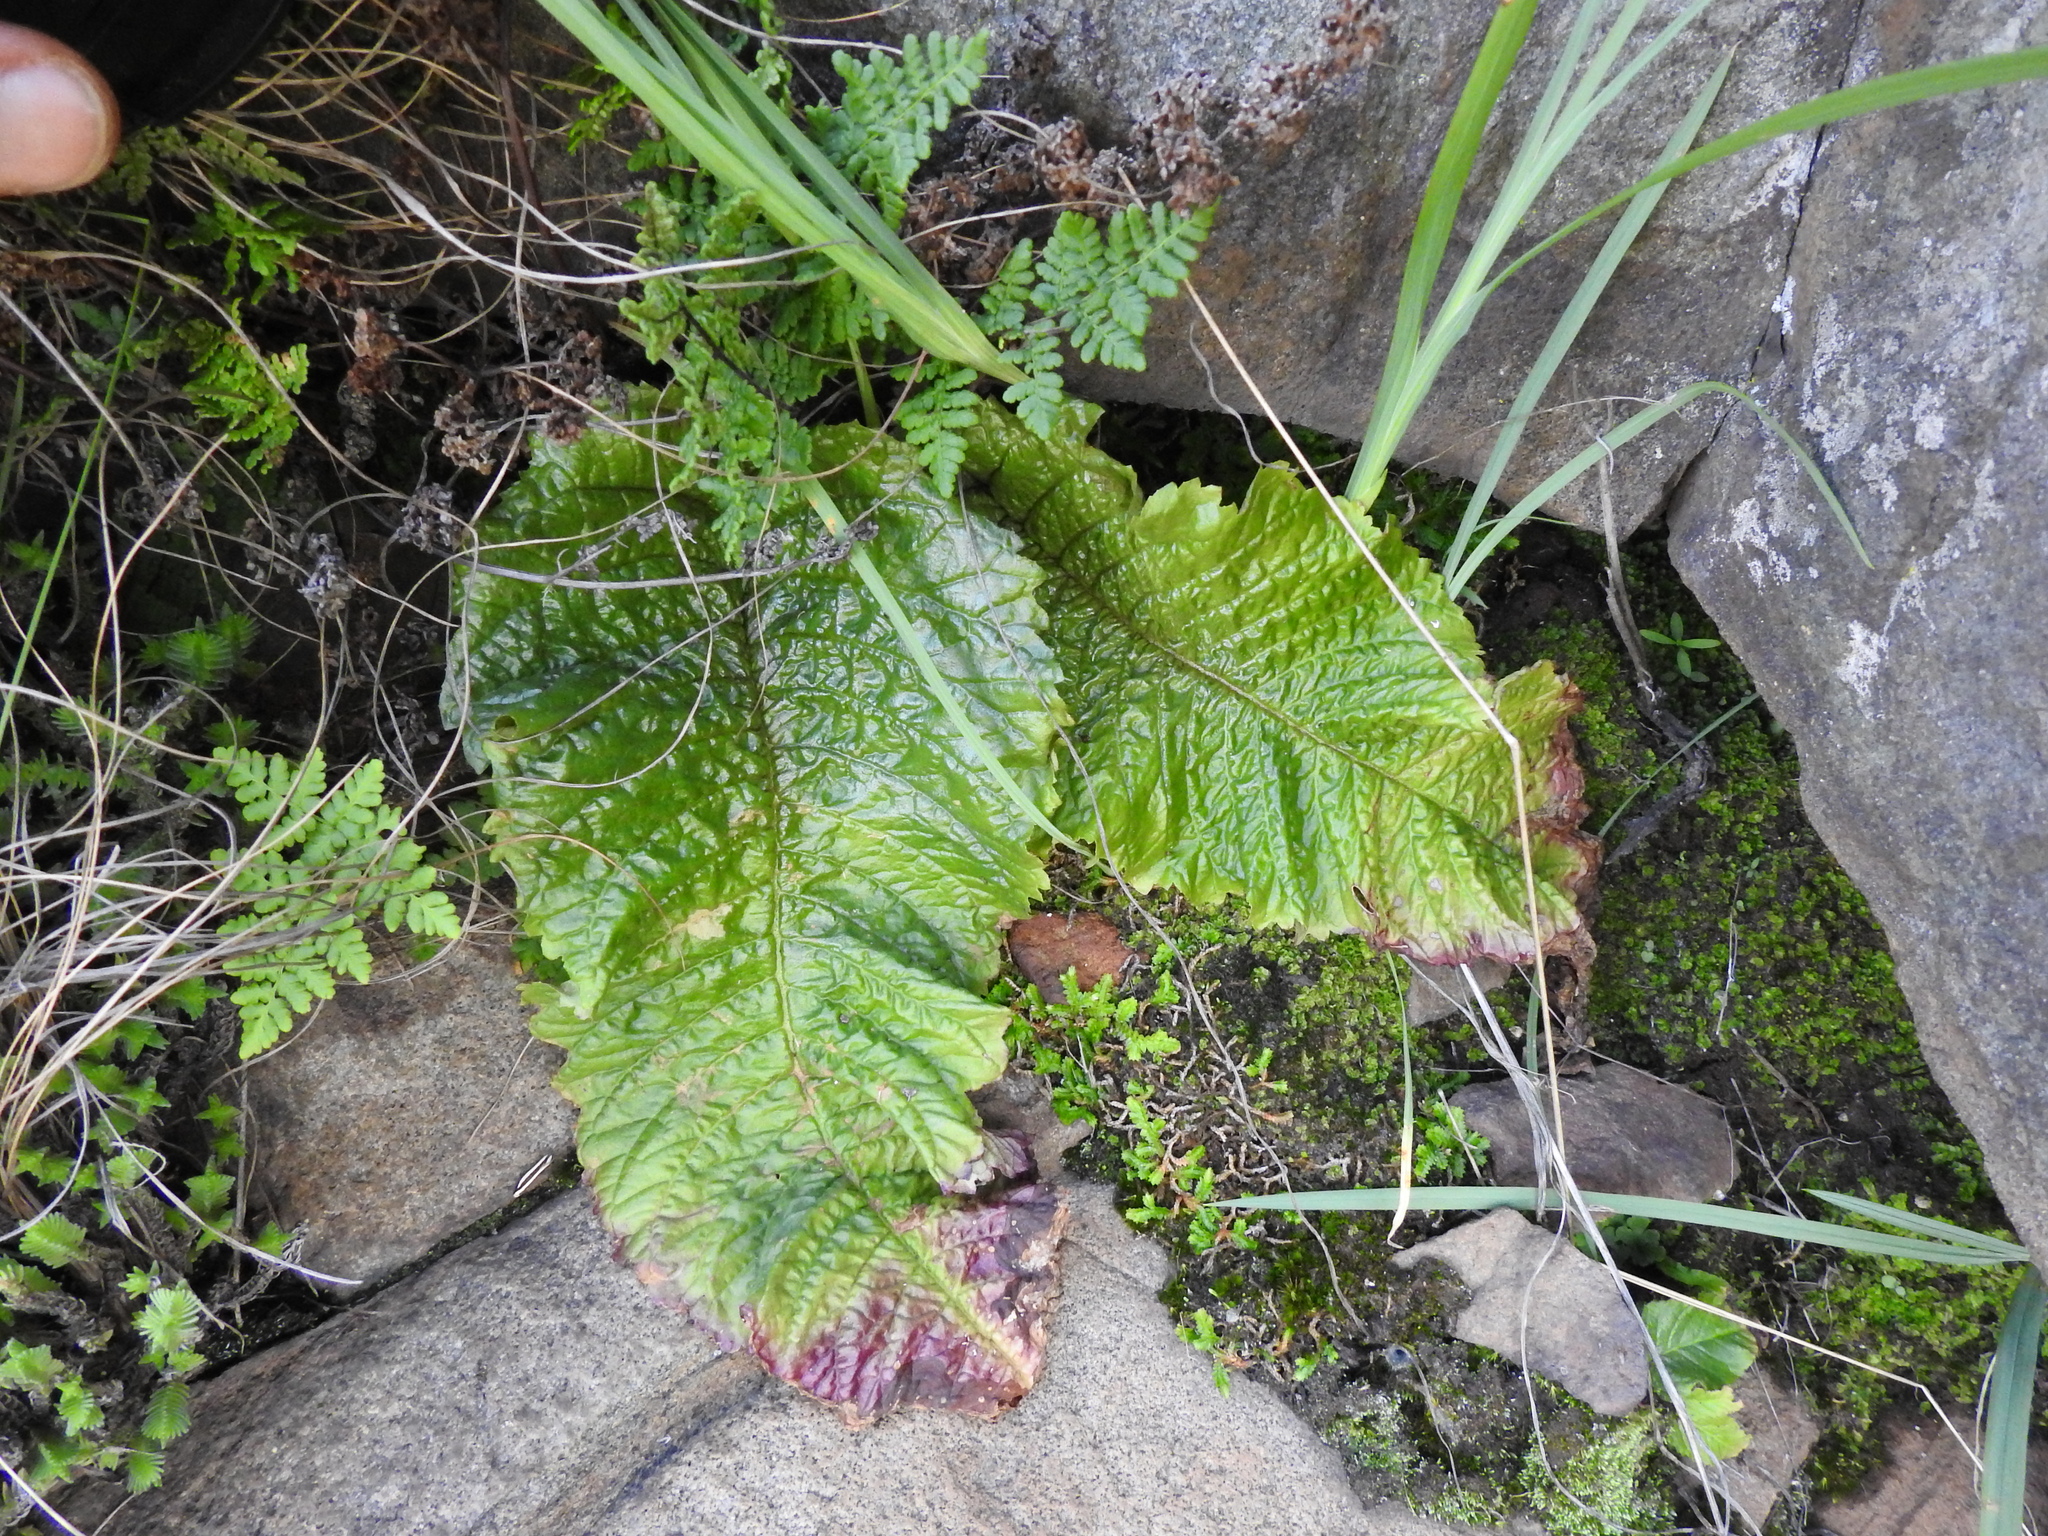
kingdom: Plantae
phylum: Tracheophyta
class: Magnoliopsida
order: Lamiales
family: Gesneriaceae
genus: Streptocarpus
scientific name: Streptocarpus denticulatus
